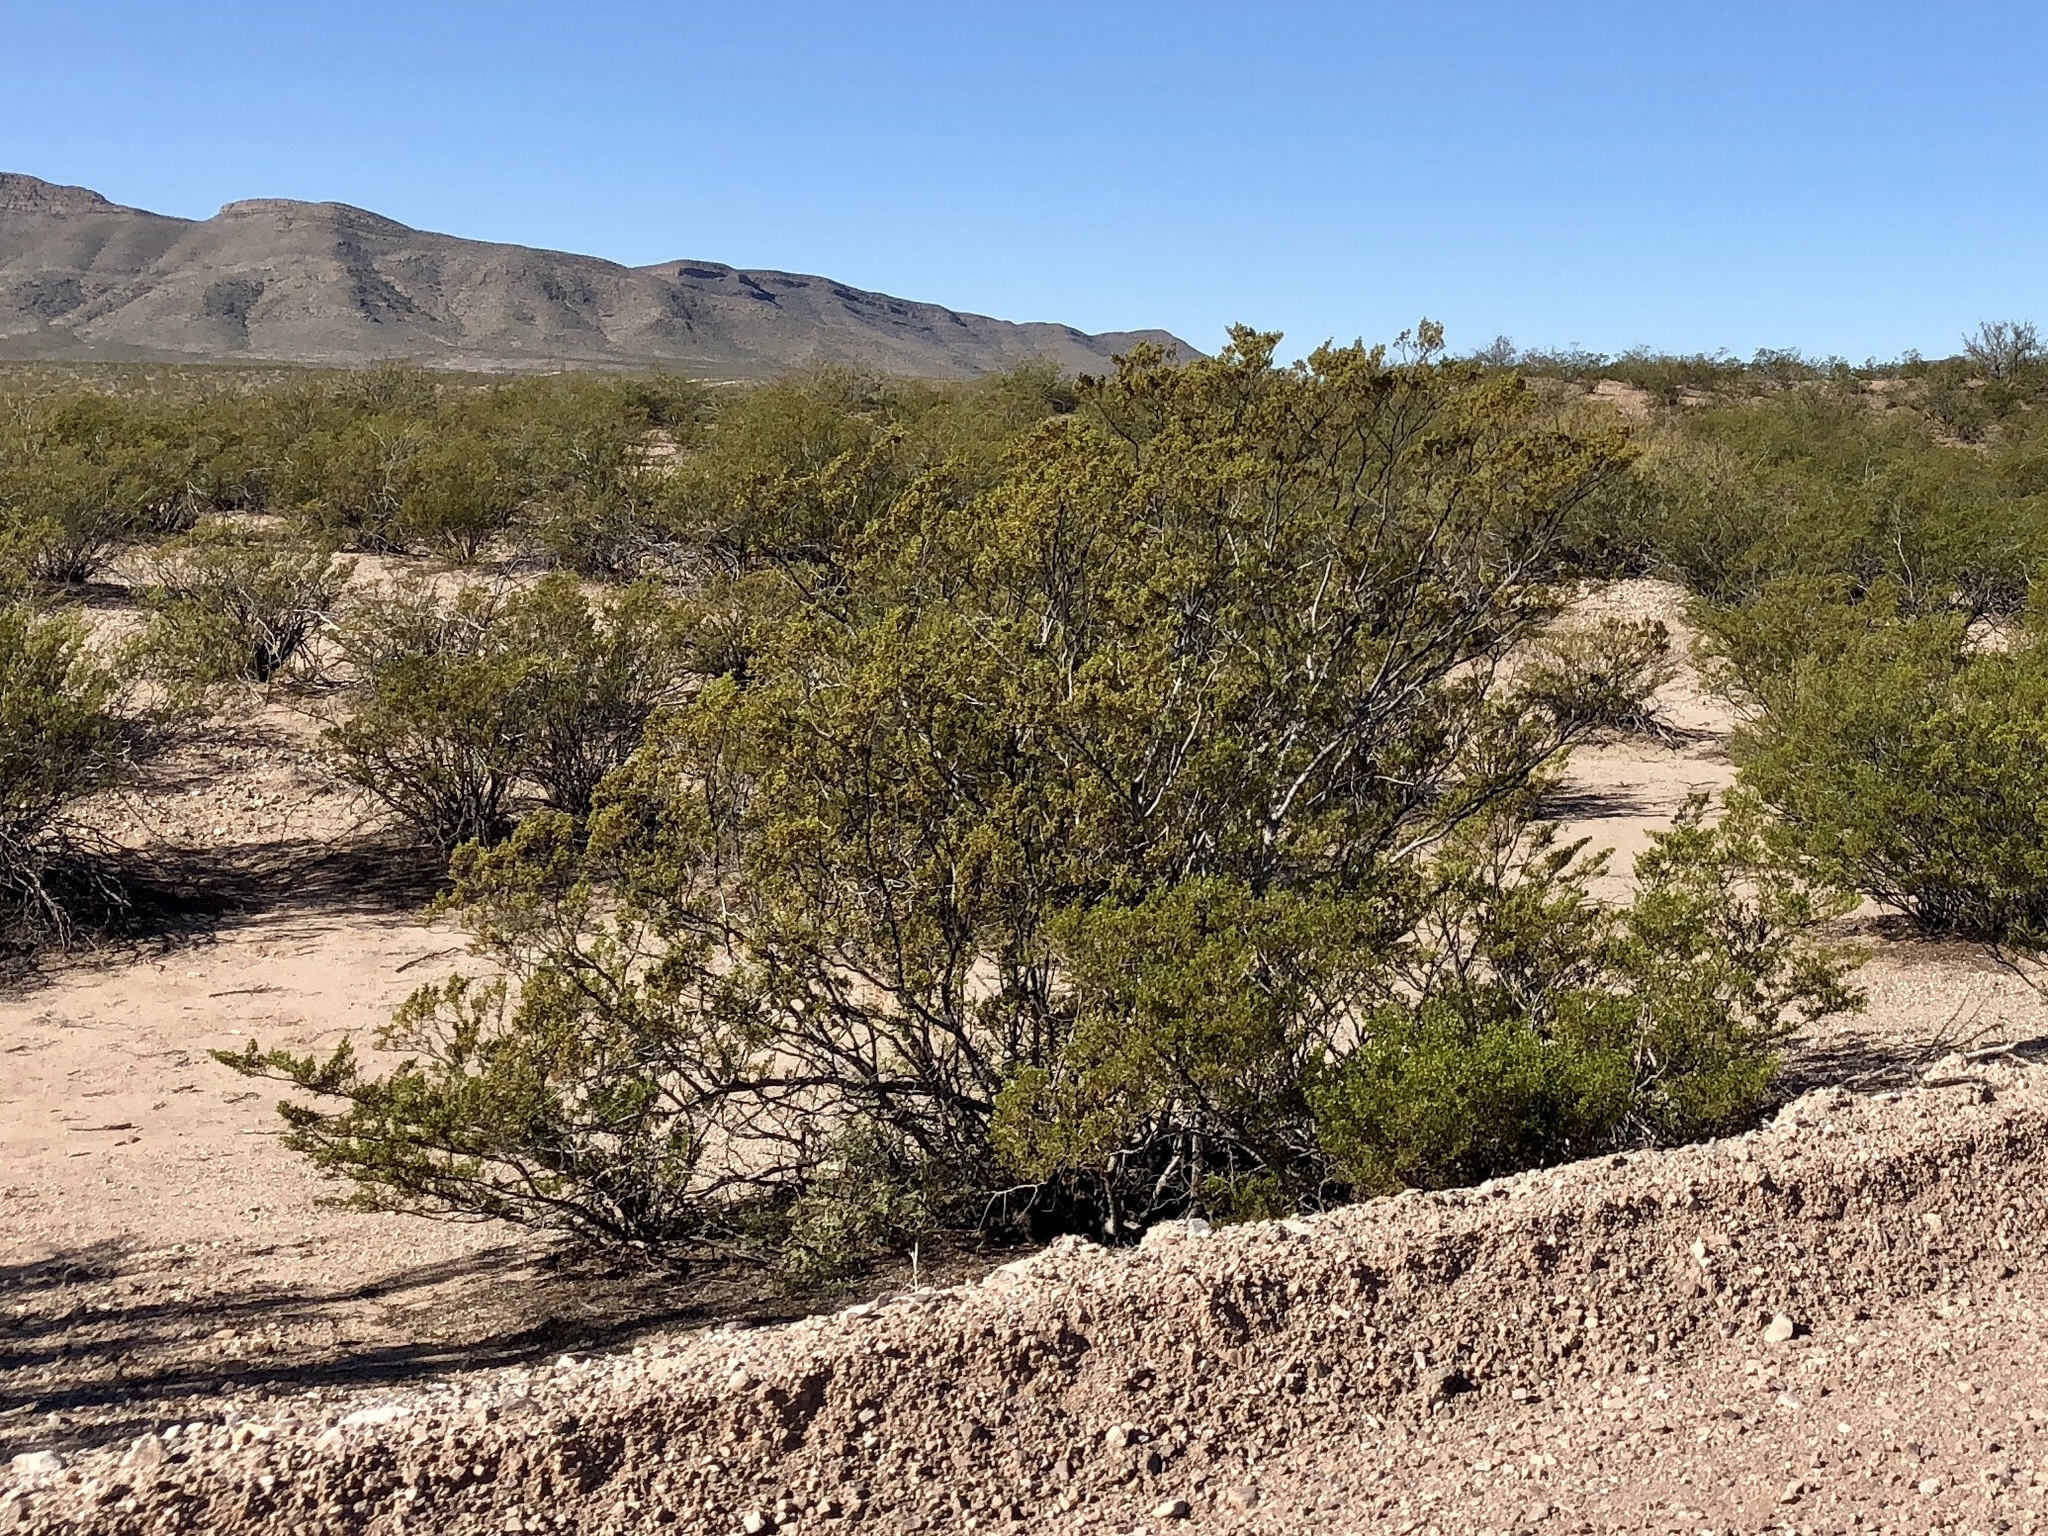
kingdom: Plantae
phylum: Tracheophyta
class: Magnoliopsida
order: Zygophyllales
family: Zygophyllaceae
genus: Larrea
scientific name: Larrea tridentata
